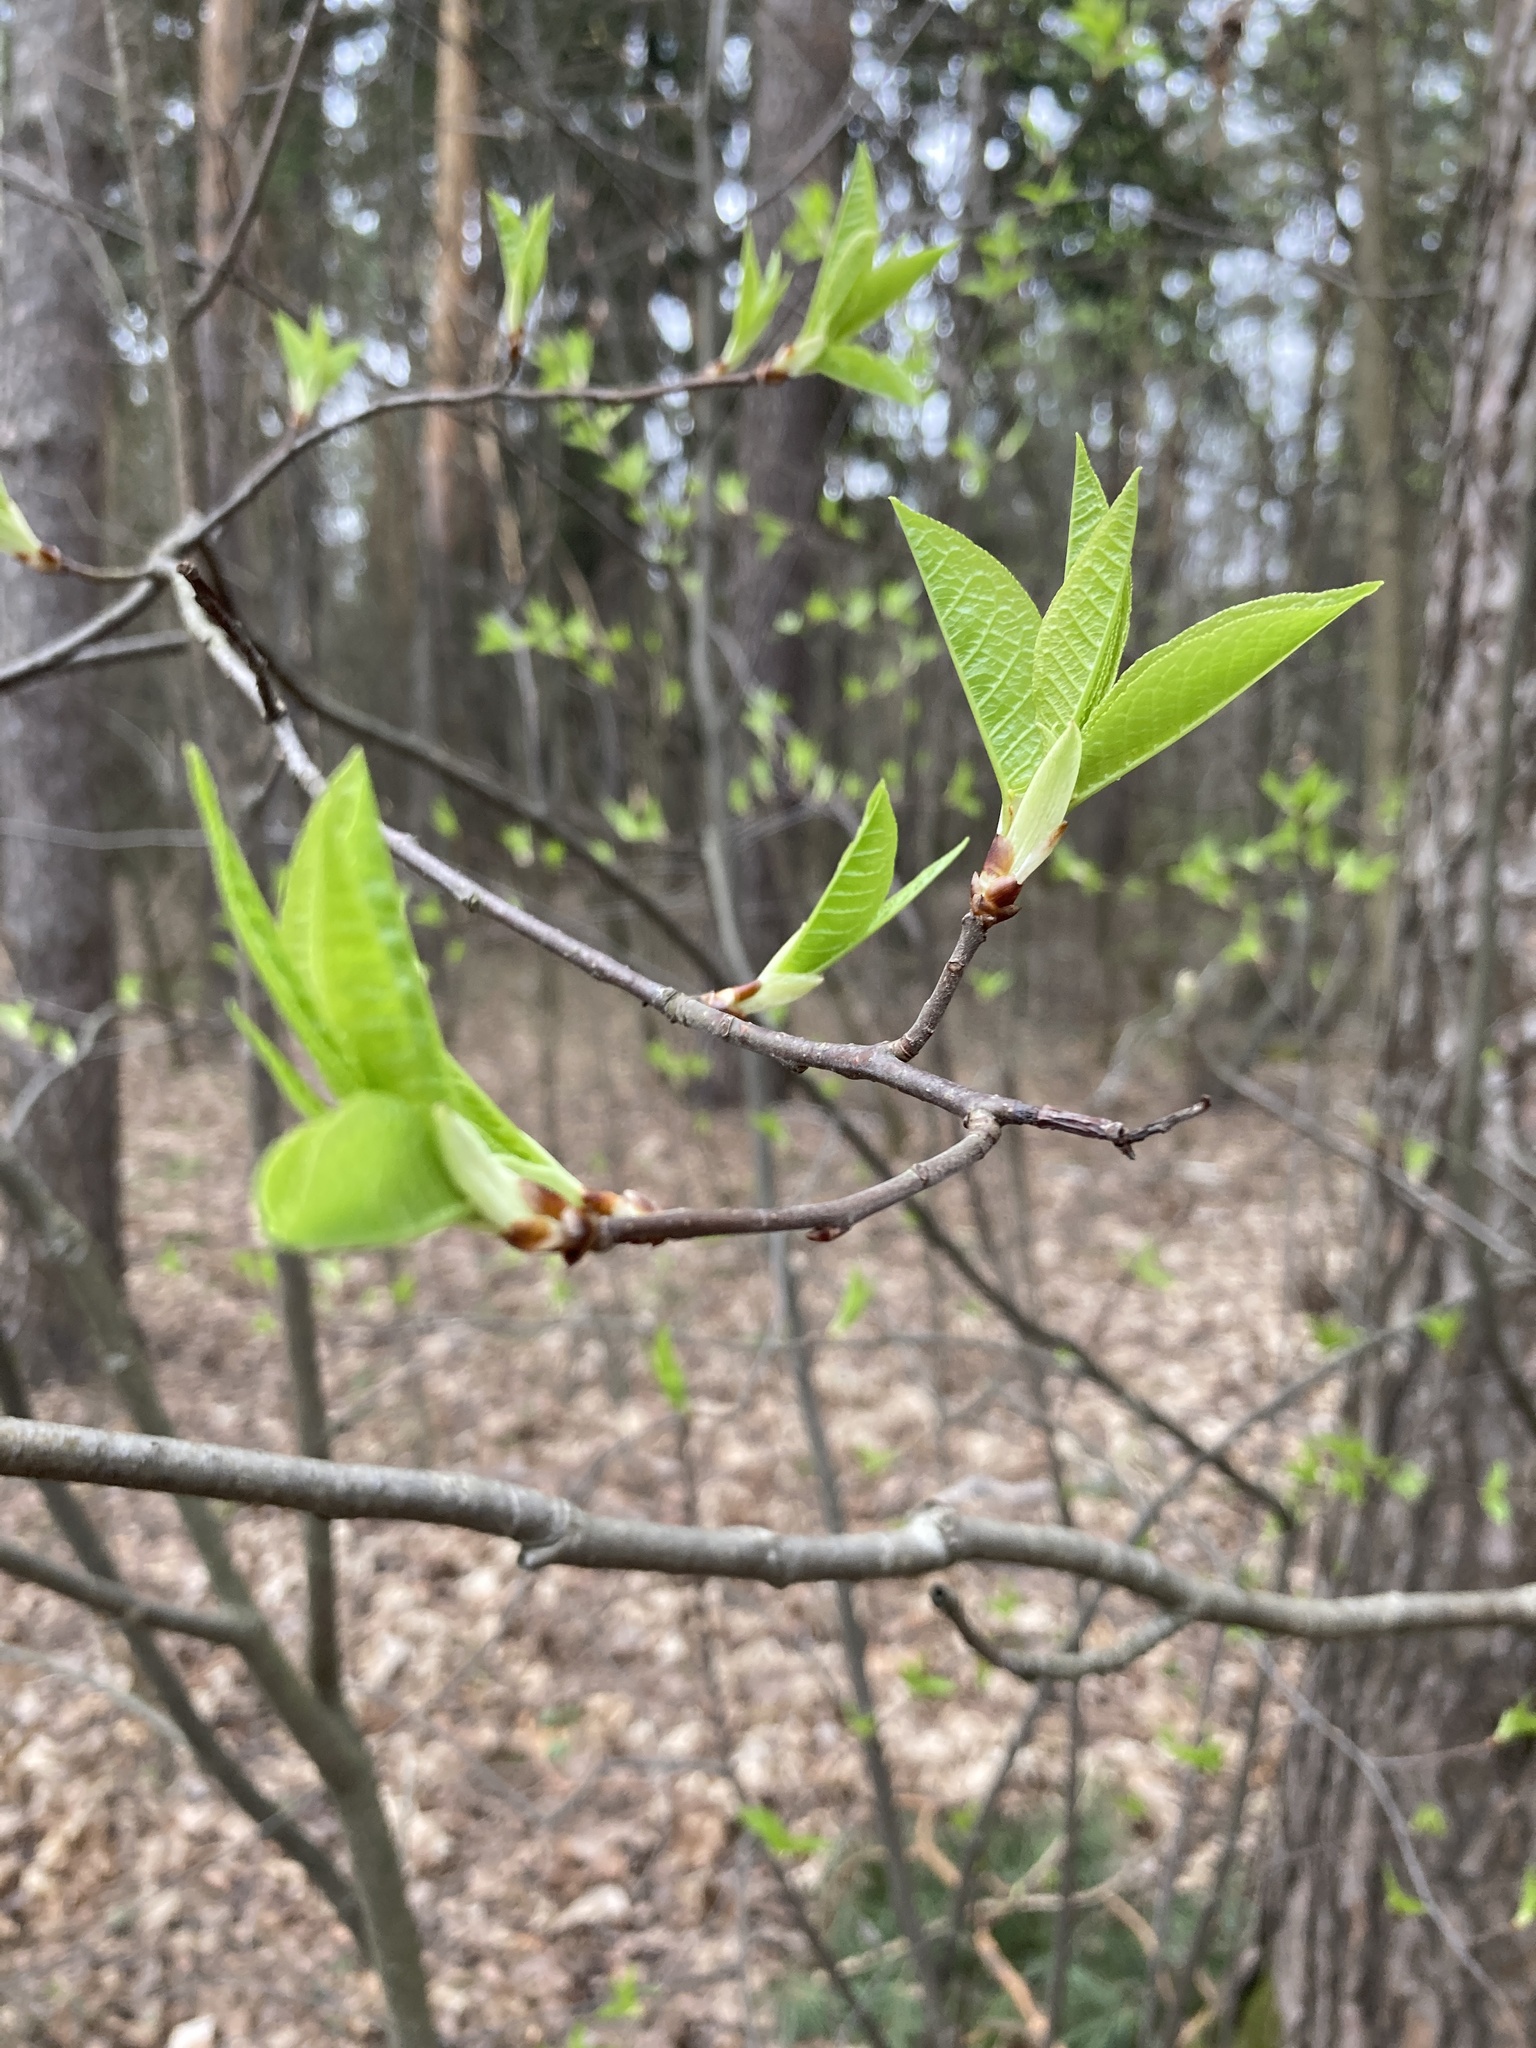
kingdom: Plantae
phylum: Tracheophyta
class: Magnoliopsida
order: Rosales
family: Rosaceae
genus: Prunus
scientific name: Prunus padus
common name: Bird cherry
